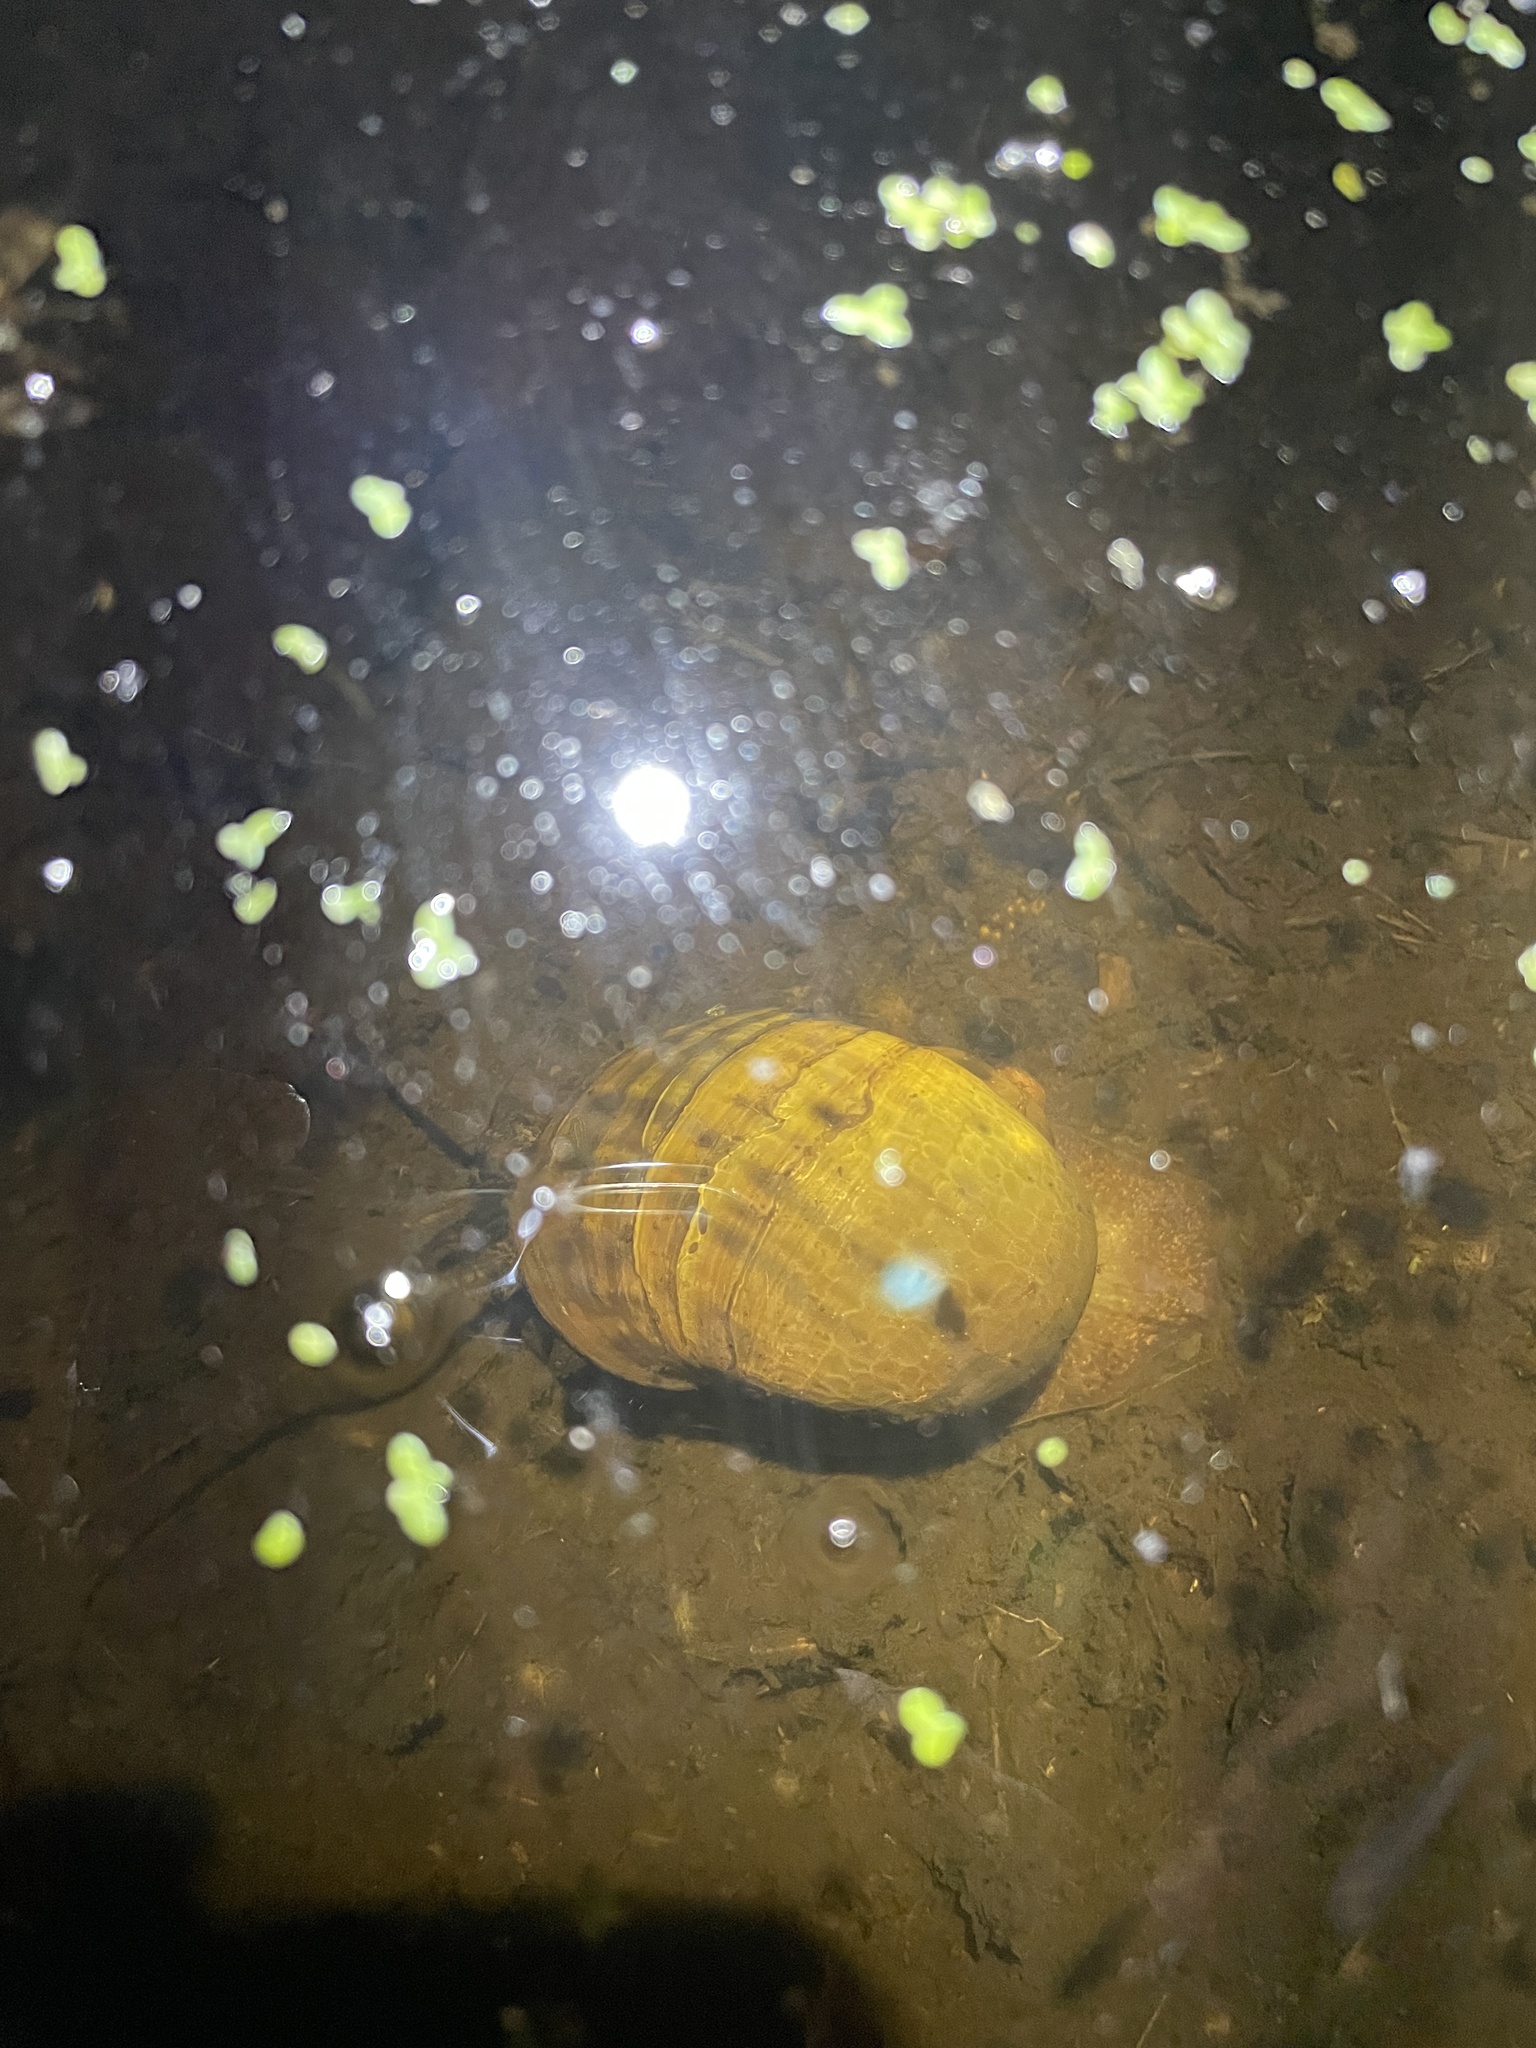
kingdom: Animalia
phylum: Mollusca
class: Gastropoda
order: Architaenioglossa
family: Ampullariidae
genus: Pomacea
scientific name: Pomacea canaliculata
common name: Channeled applesnail
